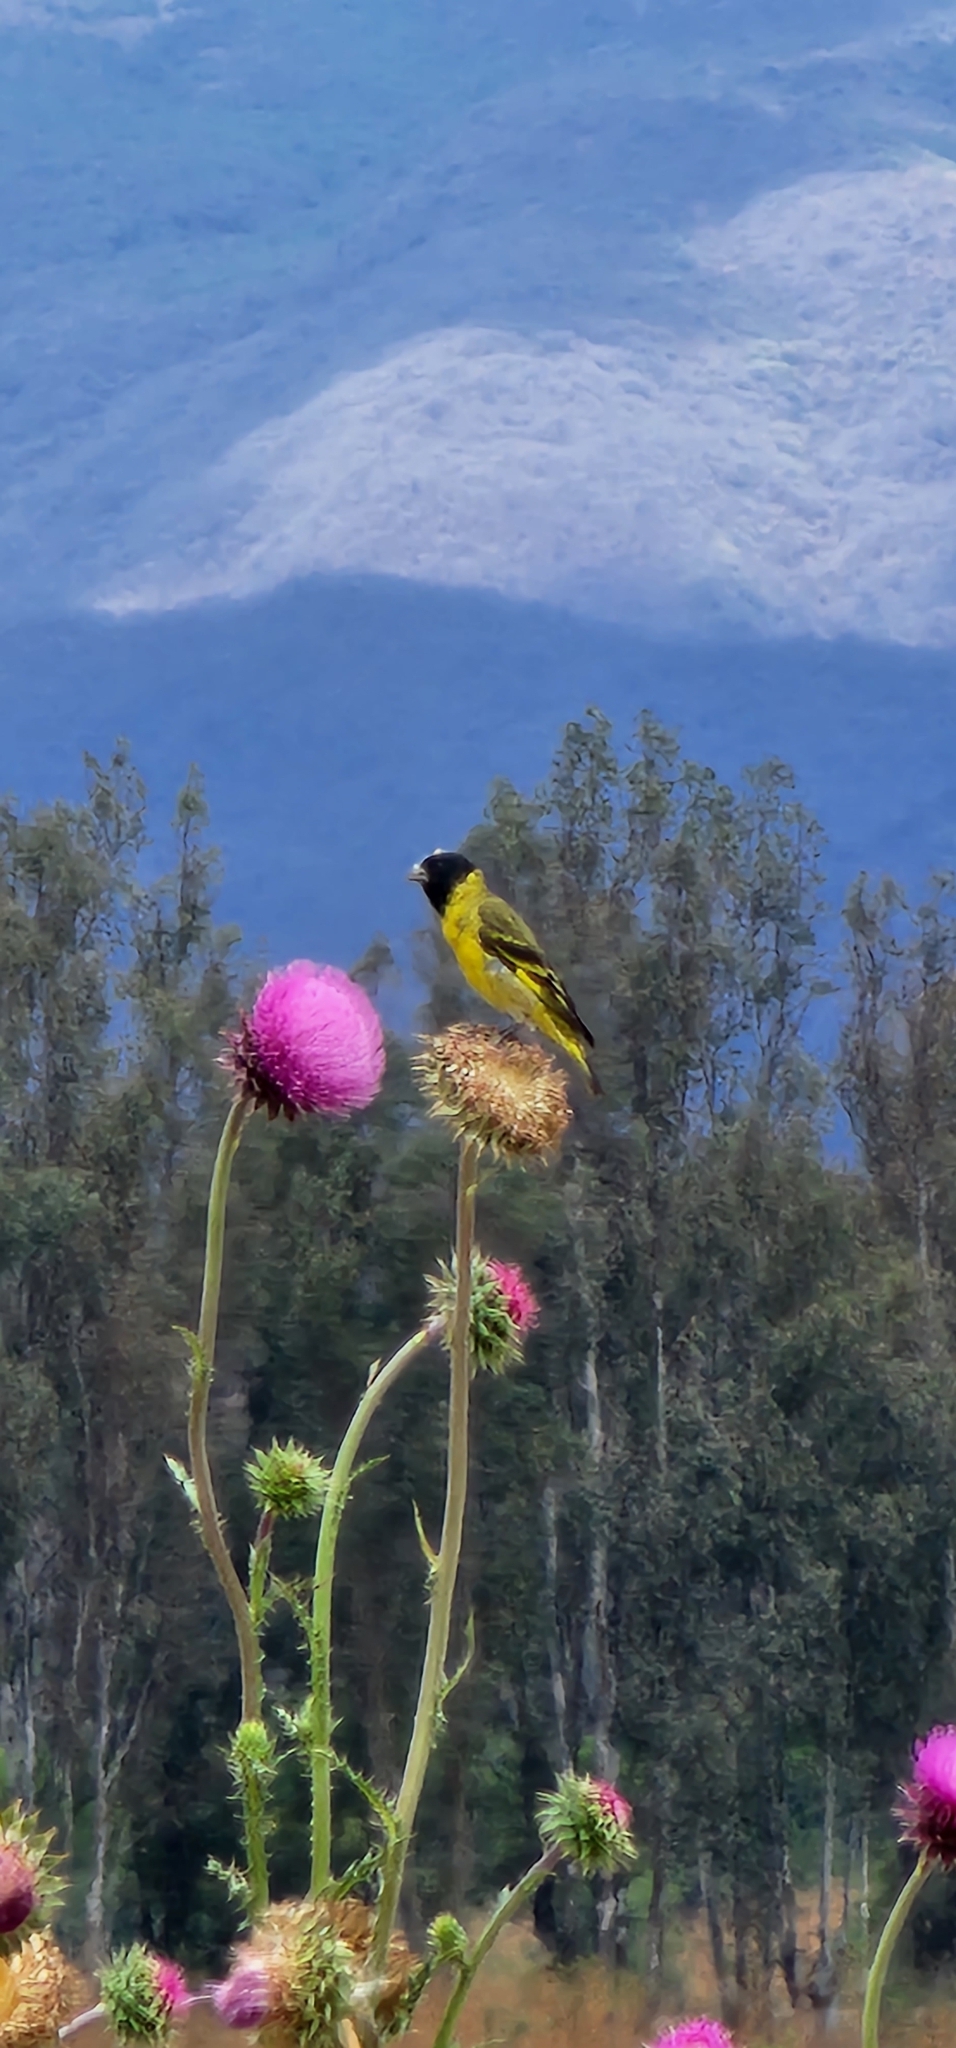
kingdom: Animalia
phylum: Chordata
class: Aves
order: Passeriformes
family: Fringillidae
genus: Spinus
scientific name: Spinus magellanicus
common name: Hooded siskin
